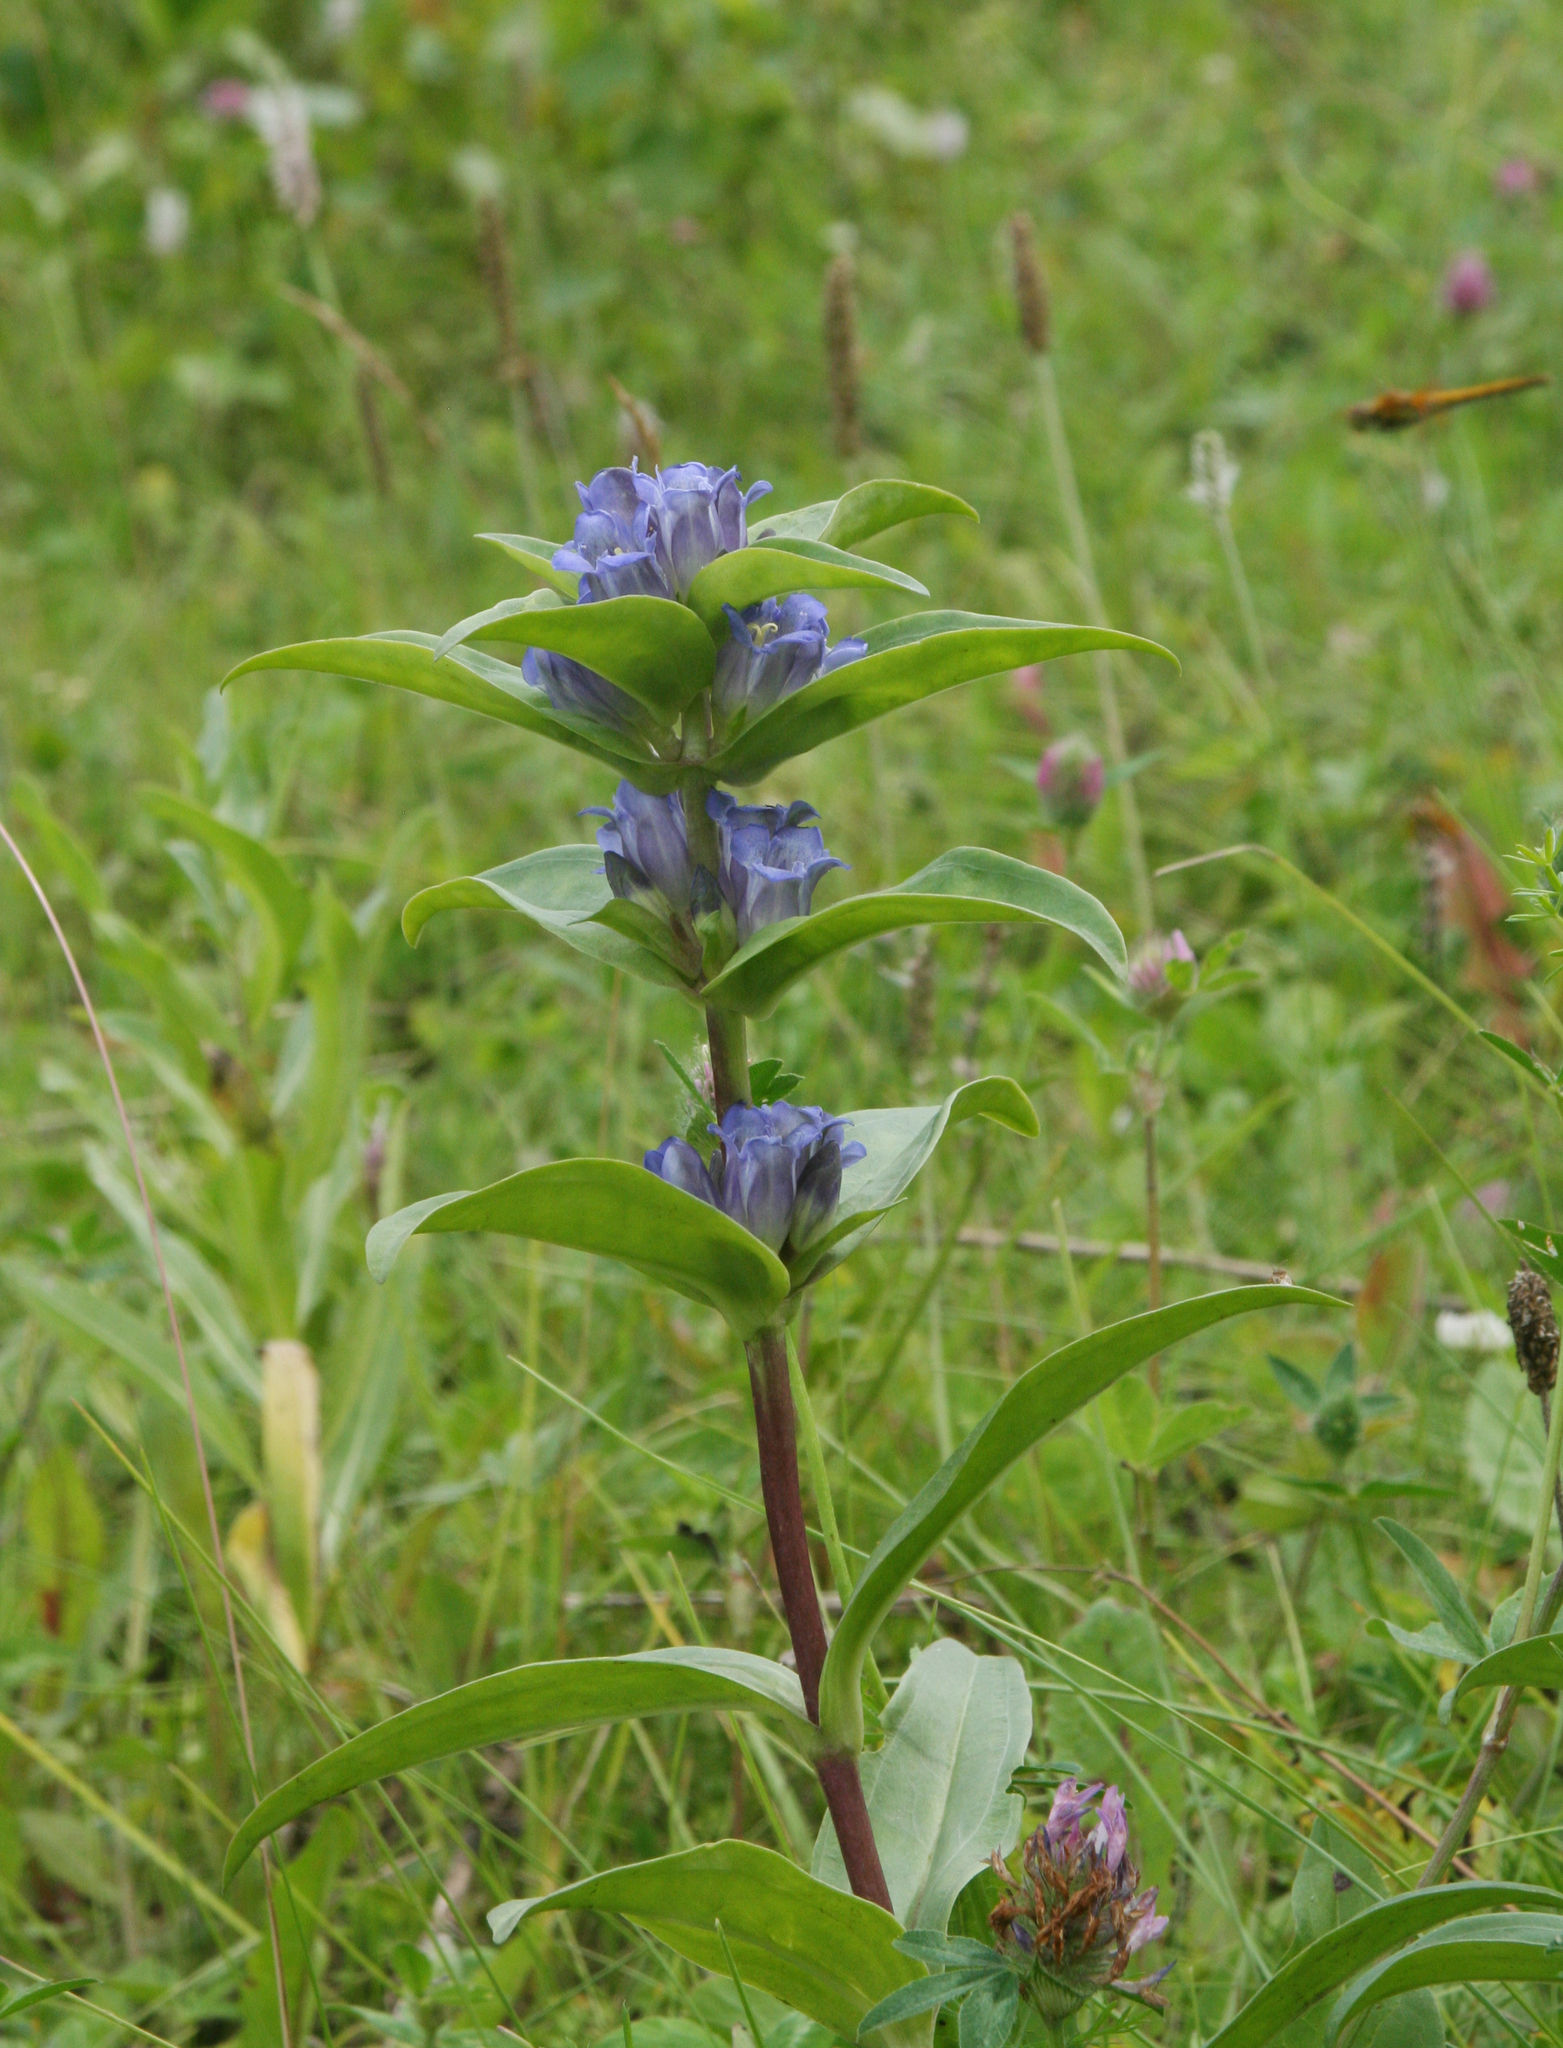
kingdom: Plantae
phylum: Tracheophyta
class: Magnoliopsida
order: Gentianales
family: Gentianaceae
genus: Gentiana
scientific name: Gentiana cruciata
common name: Cross gentian
